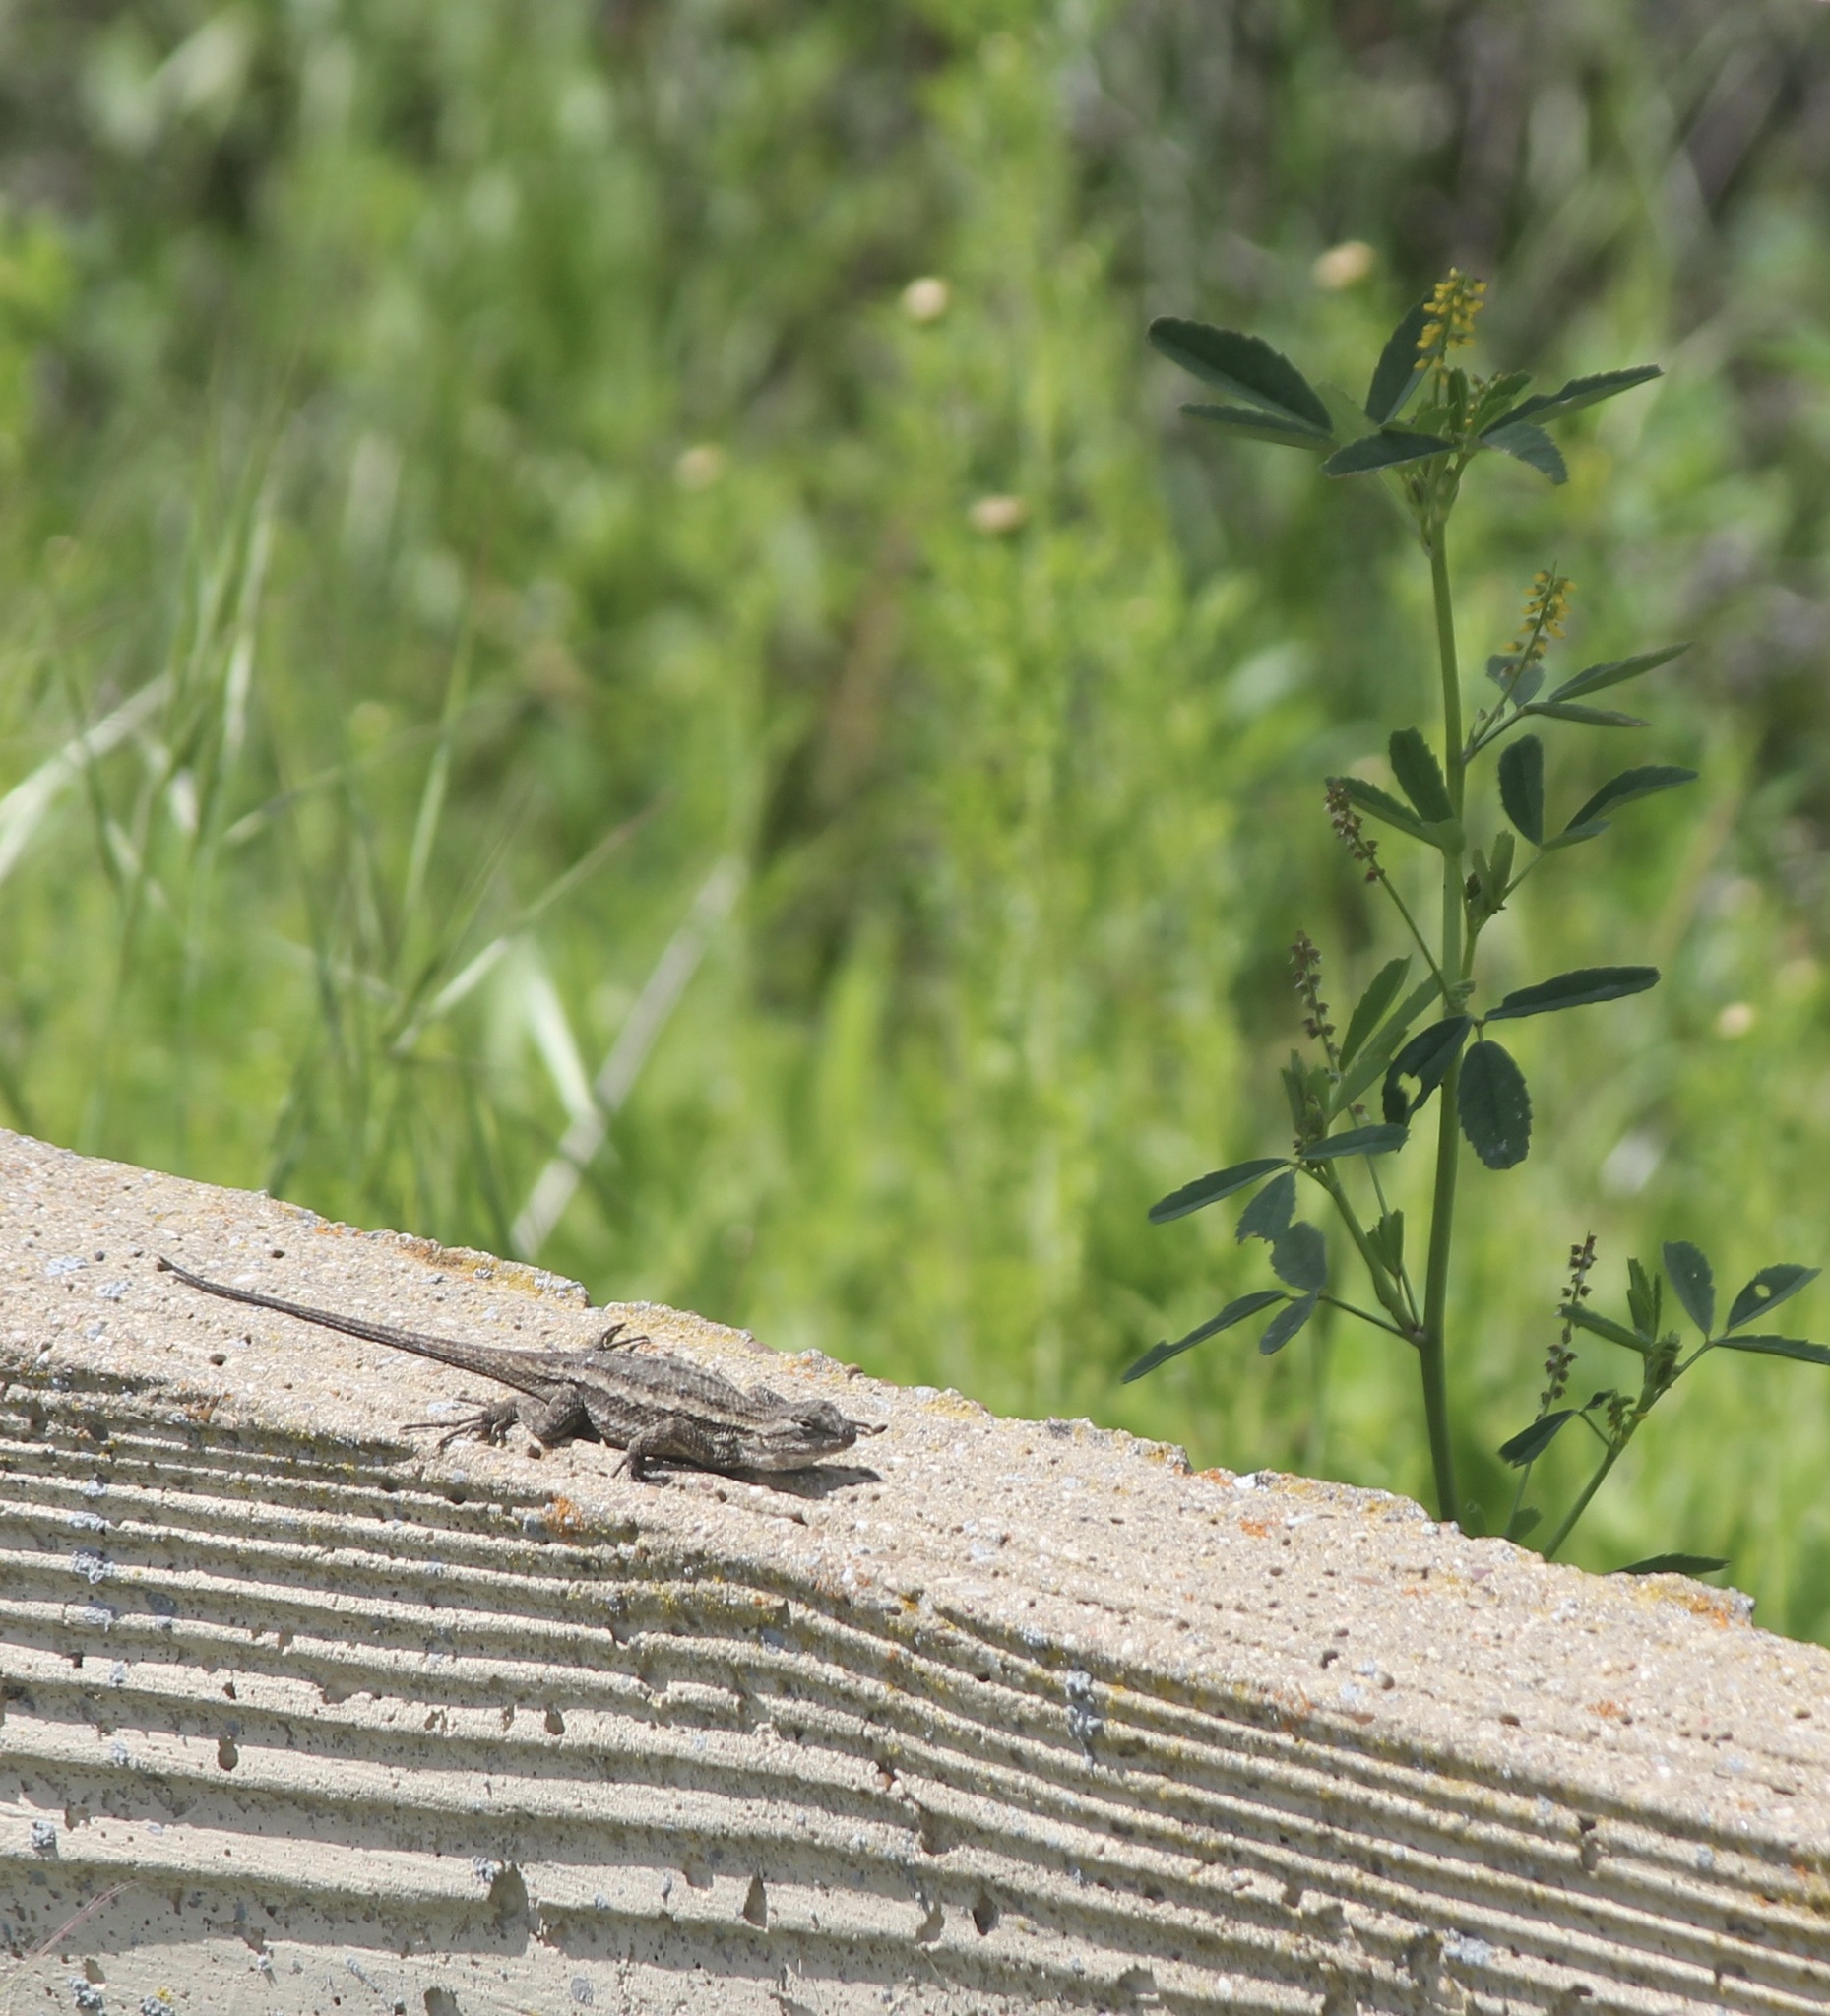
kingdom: Animalia
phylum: Chordata
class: Squamata
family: Phrynosomatidae
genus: Sceloporus
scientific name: Sceloporus occidentalis
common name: Western fence lizard
